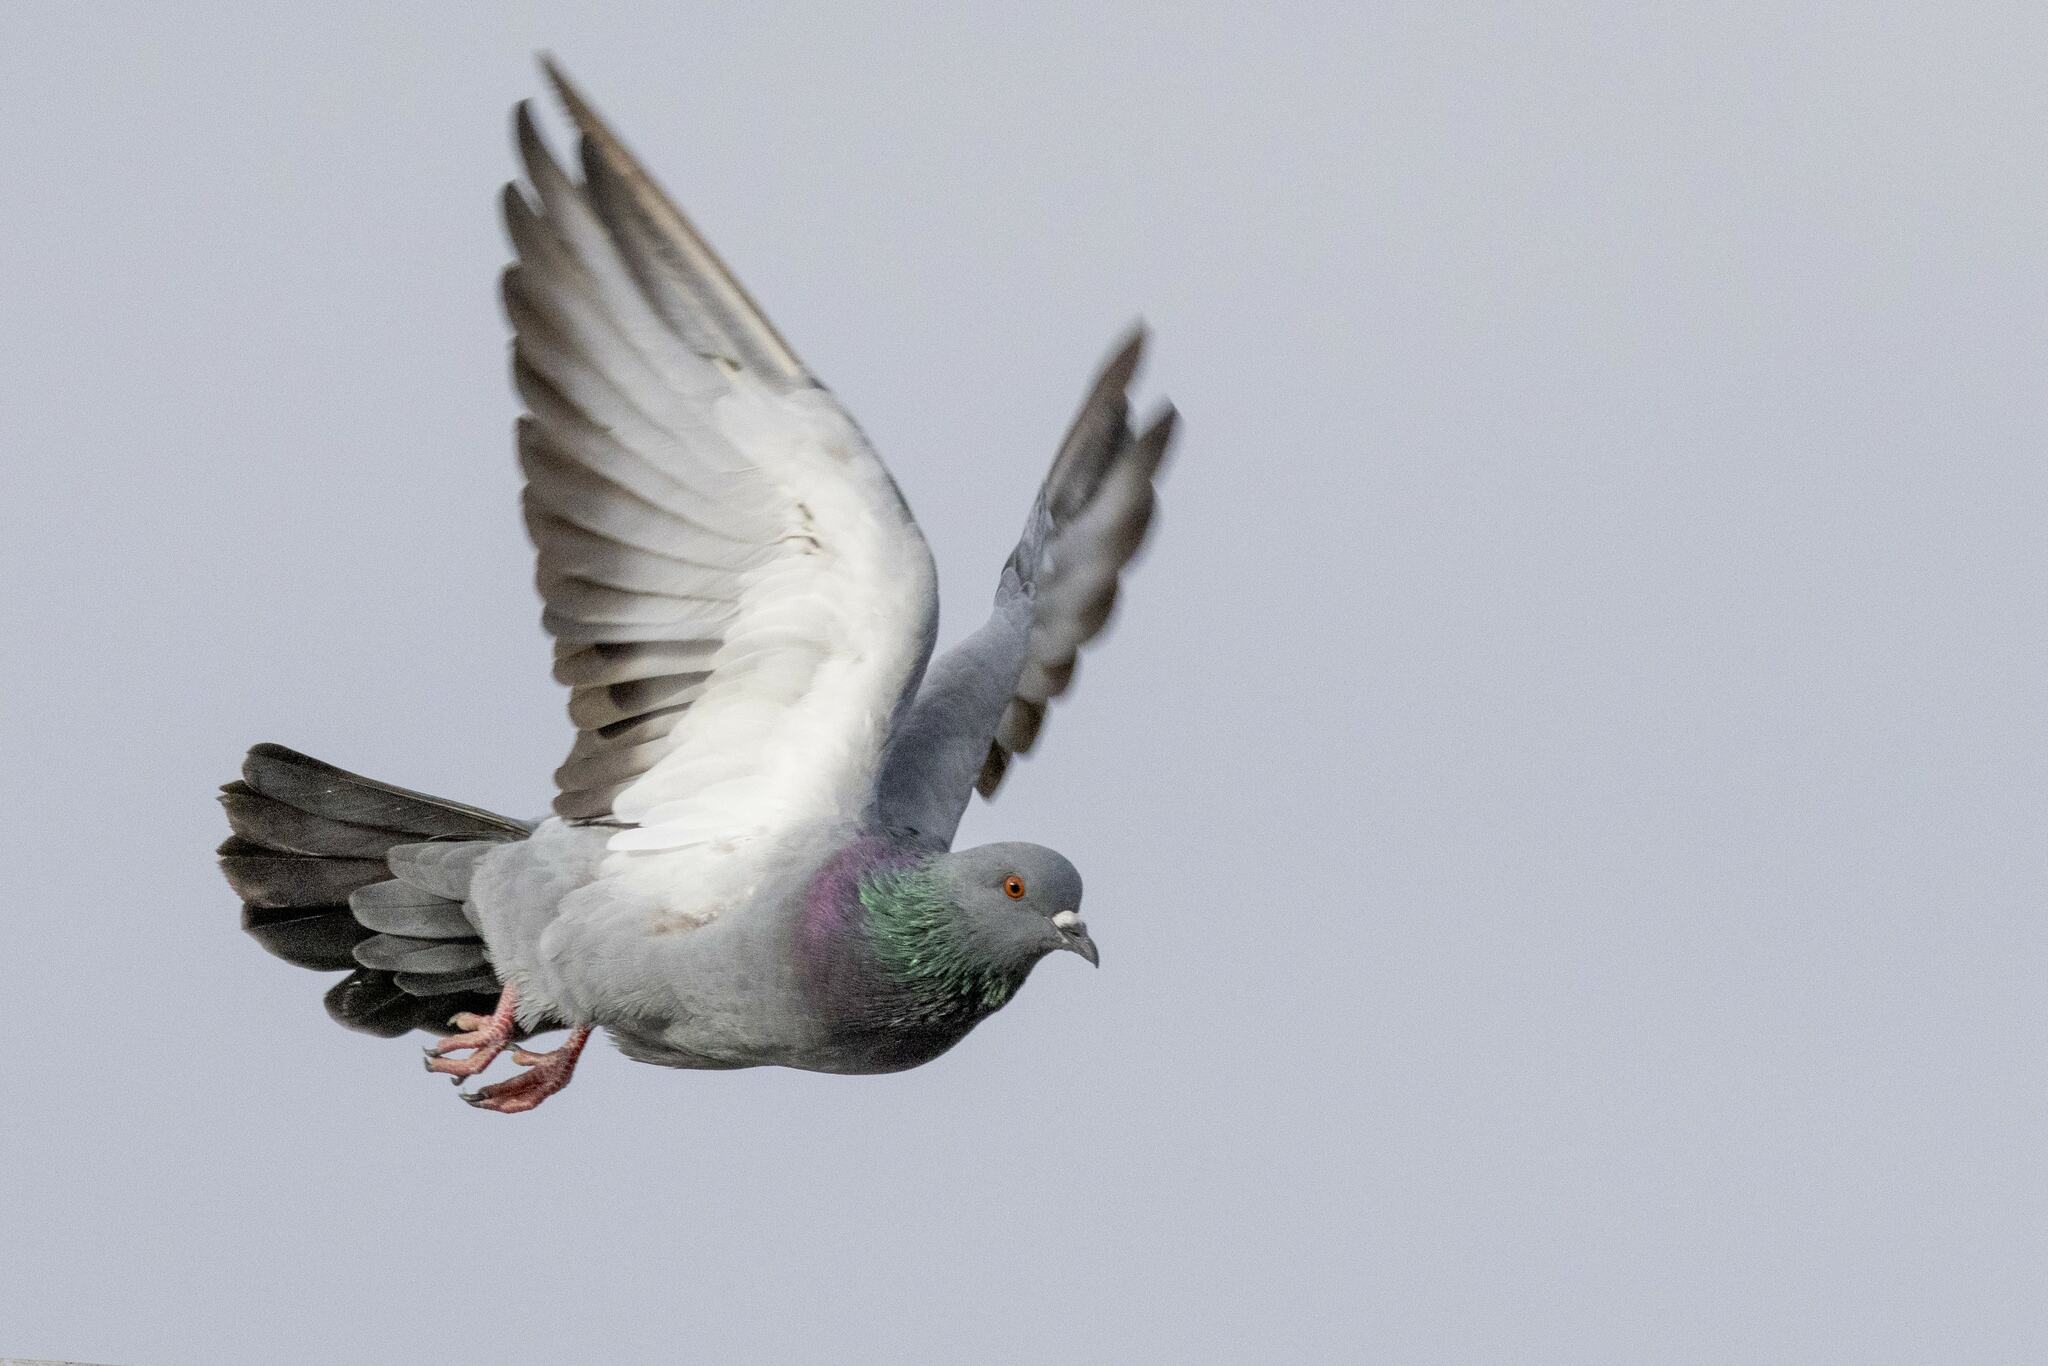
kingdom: Animalia
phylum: Chordata
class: Aves
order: Columbiformes
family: Columbidae
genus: Columba
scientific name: Columba livia
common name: Rock pigeon
